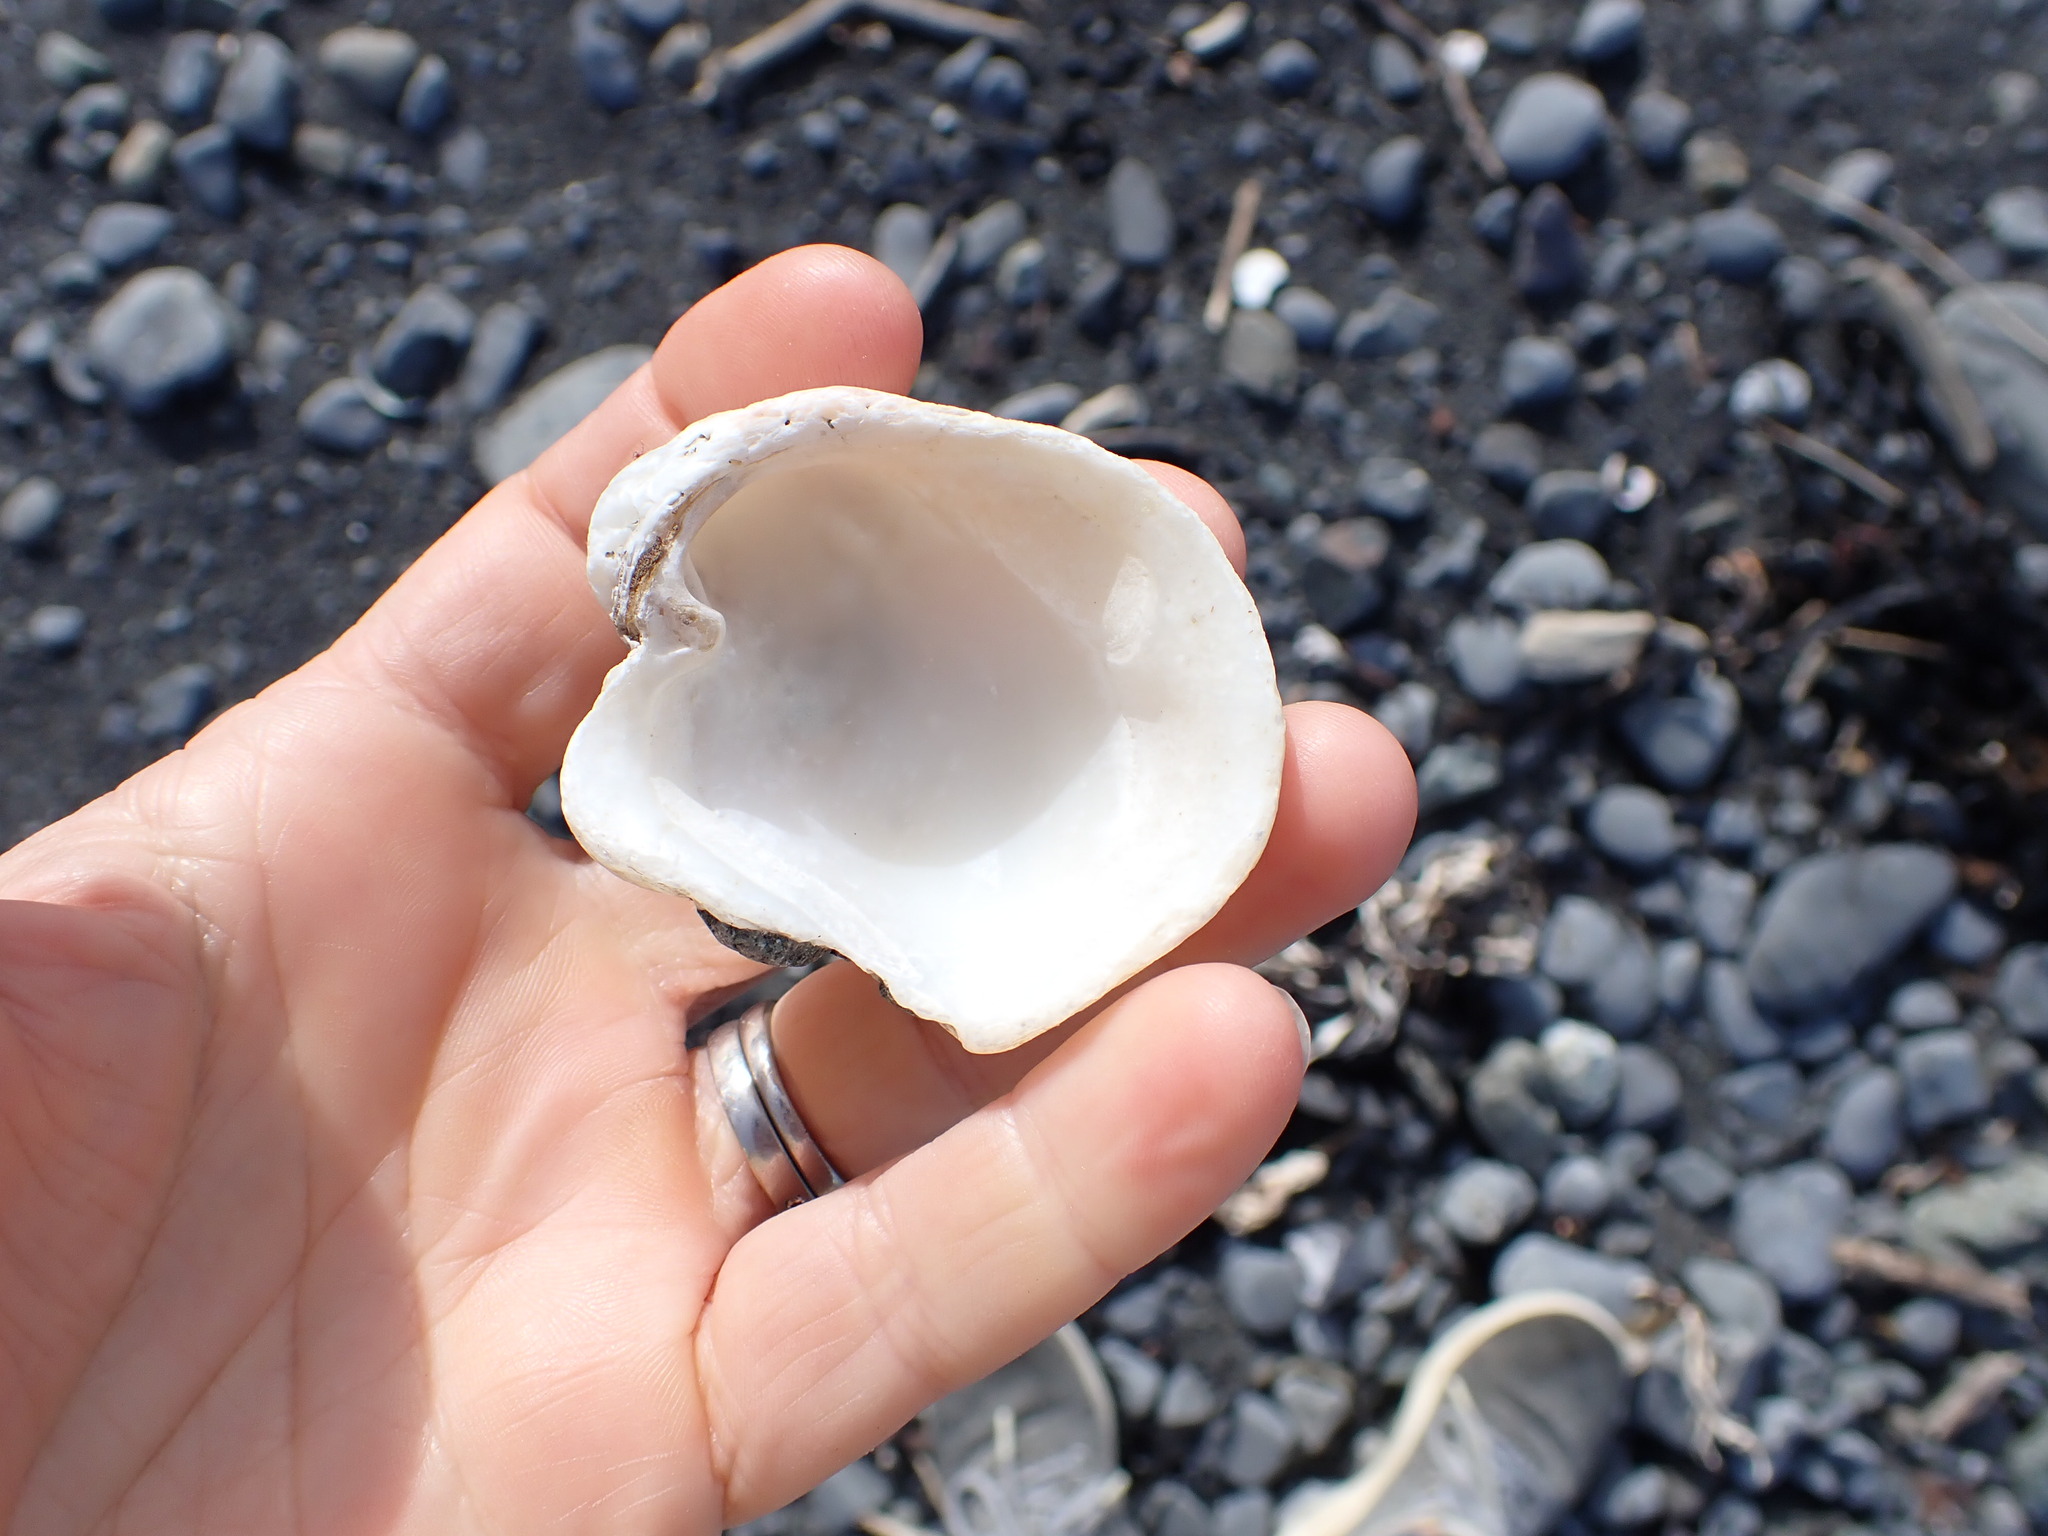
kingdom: Animalia
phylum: Mollusca
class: Bivalvia
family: Cleidothaeridae
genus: Cleidothaerus
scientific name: Cleidothaerus albidus
